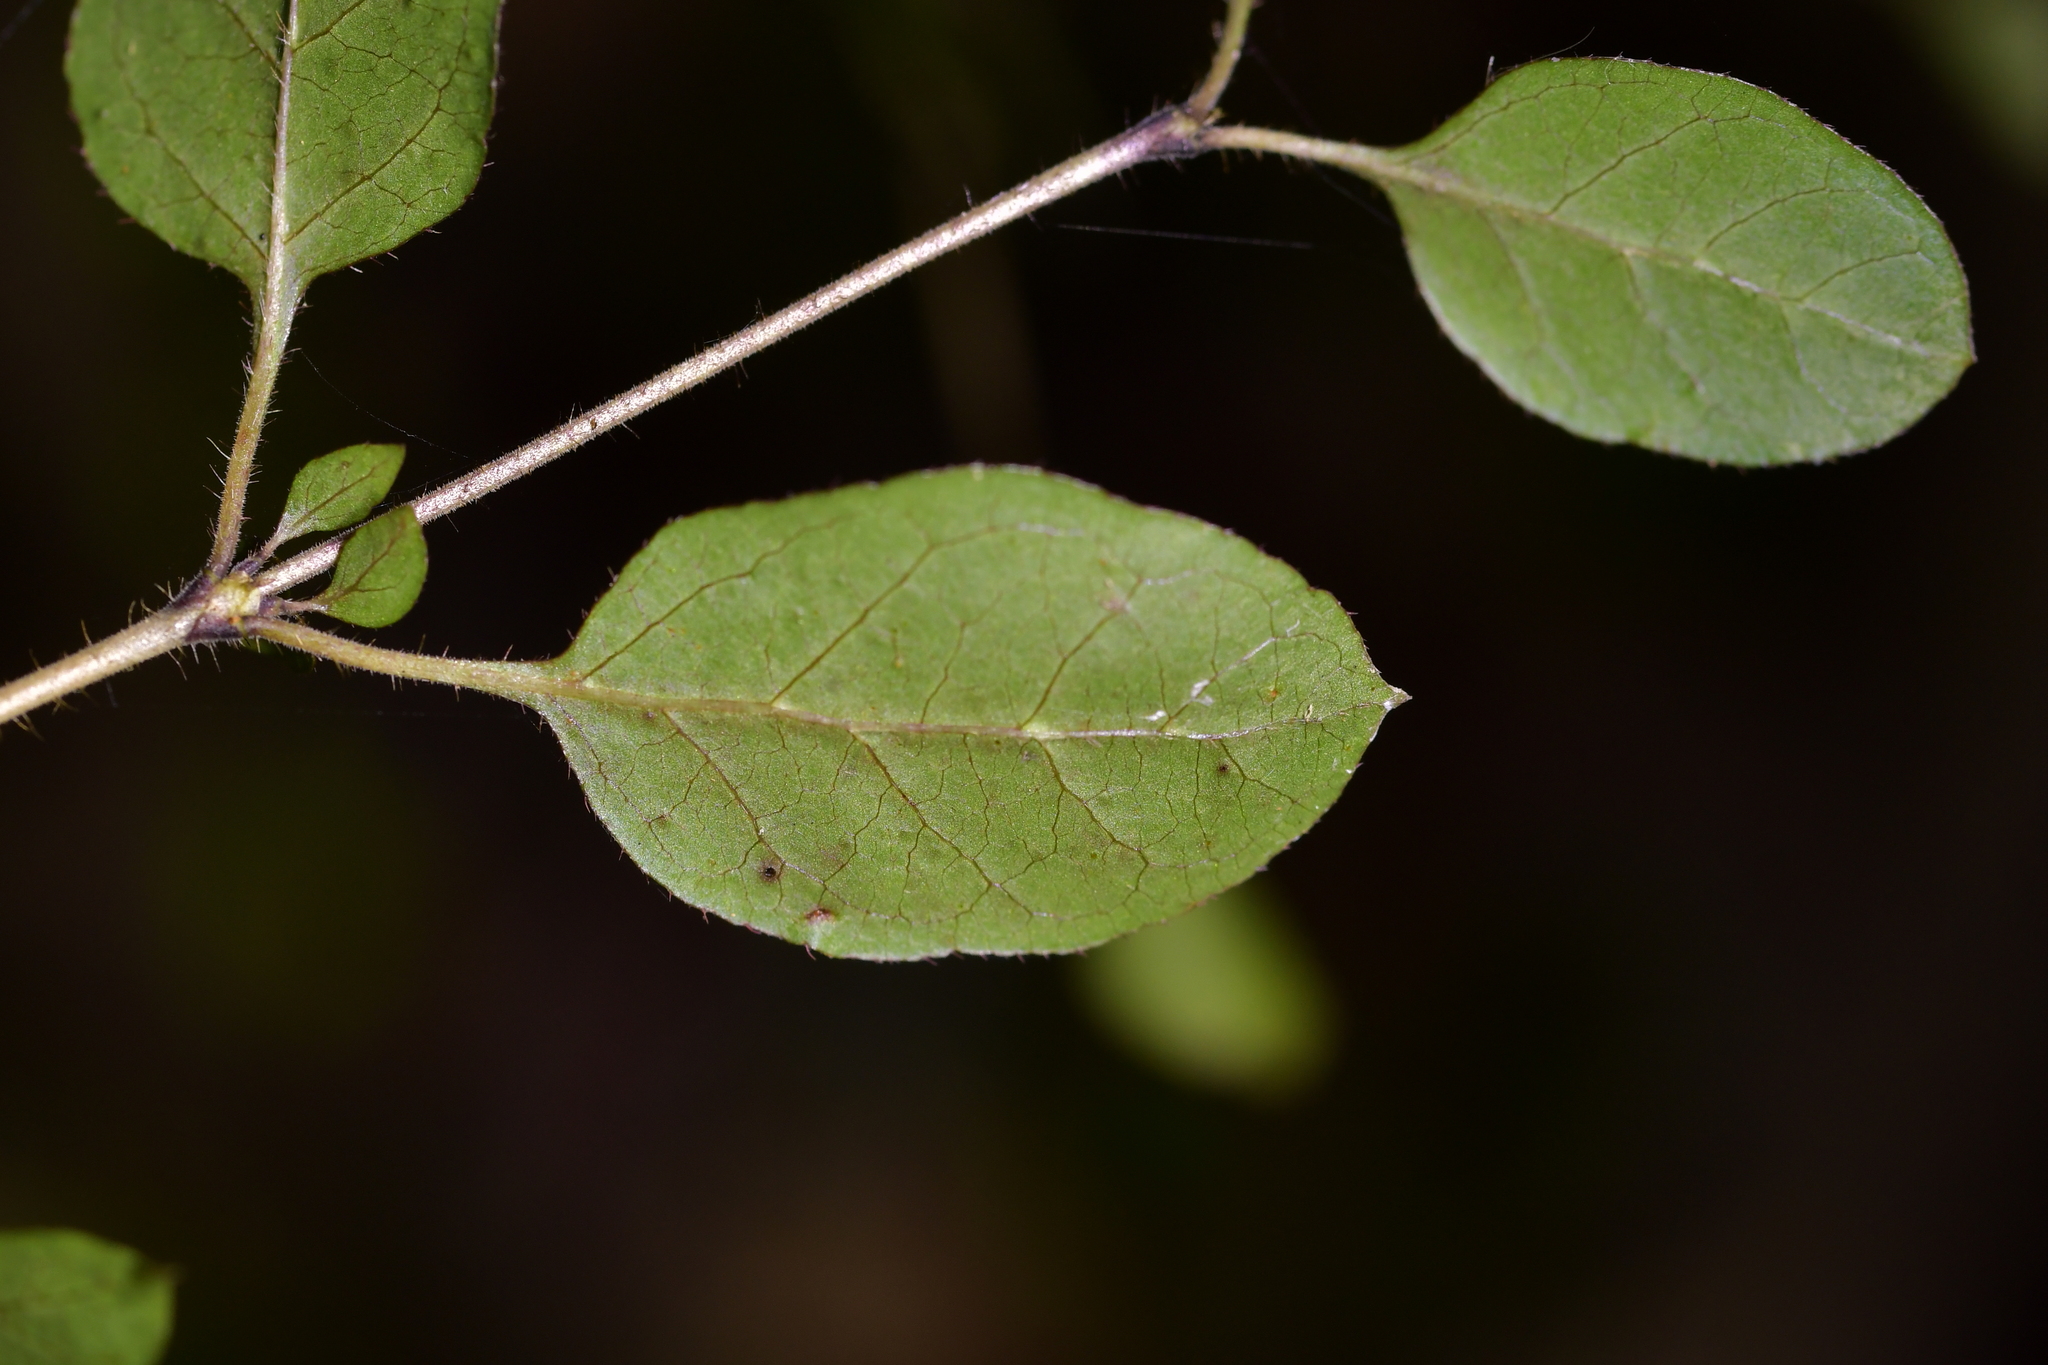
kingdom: Plantae
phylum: Tracheophyta
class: Magnoliopsida
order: Gentianales
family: Rubiaceae
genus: Coprosma
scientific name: Coprosma rotundifolia
